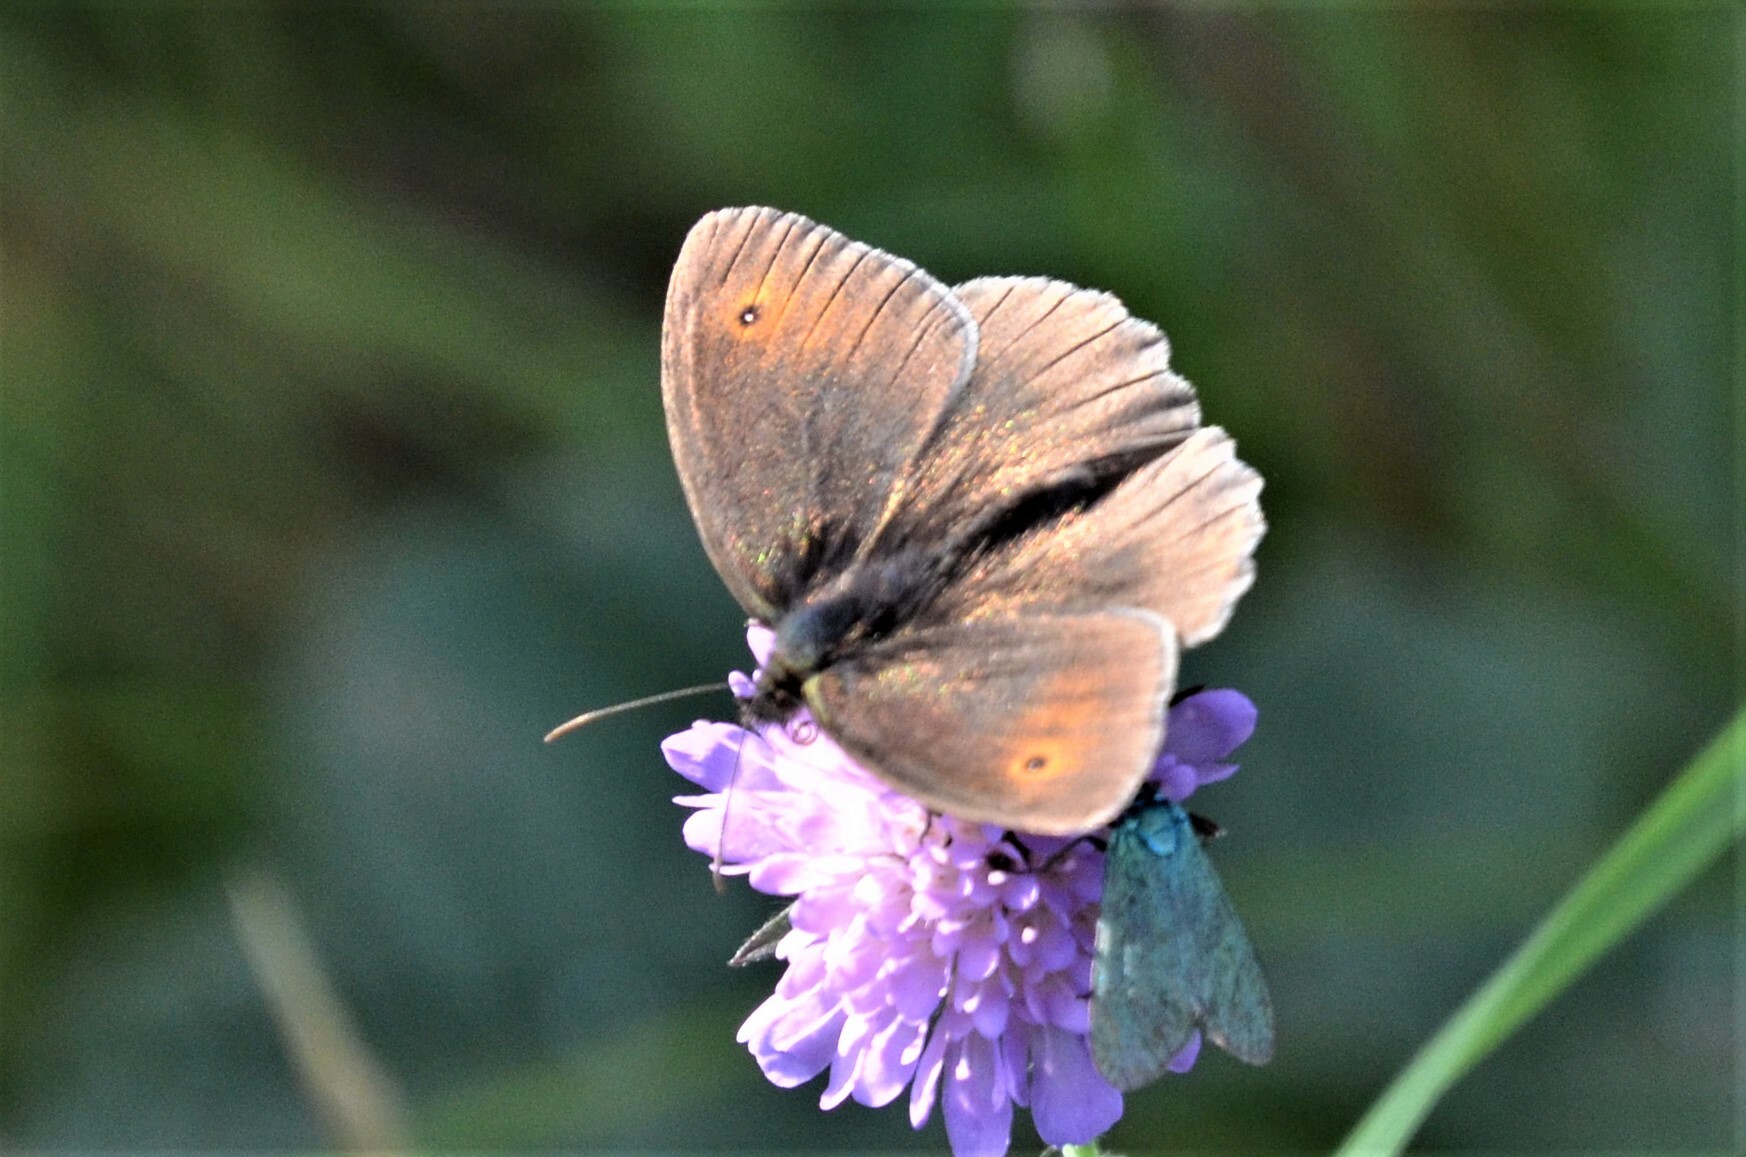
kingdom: Animalia
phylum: Arthropoda
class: Insecta
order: Lepidoptera
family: Nymphalidae
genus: Maniola
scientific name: Maniola jurtina
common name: Meadow brown
